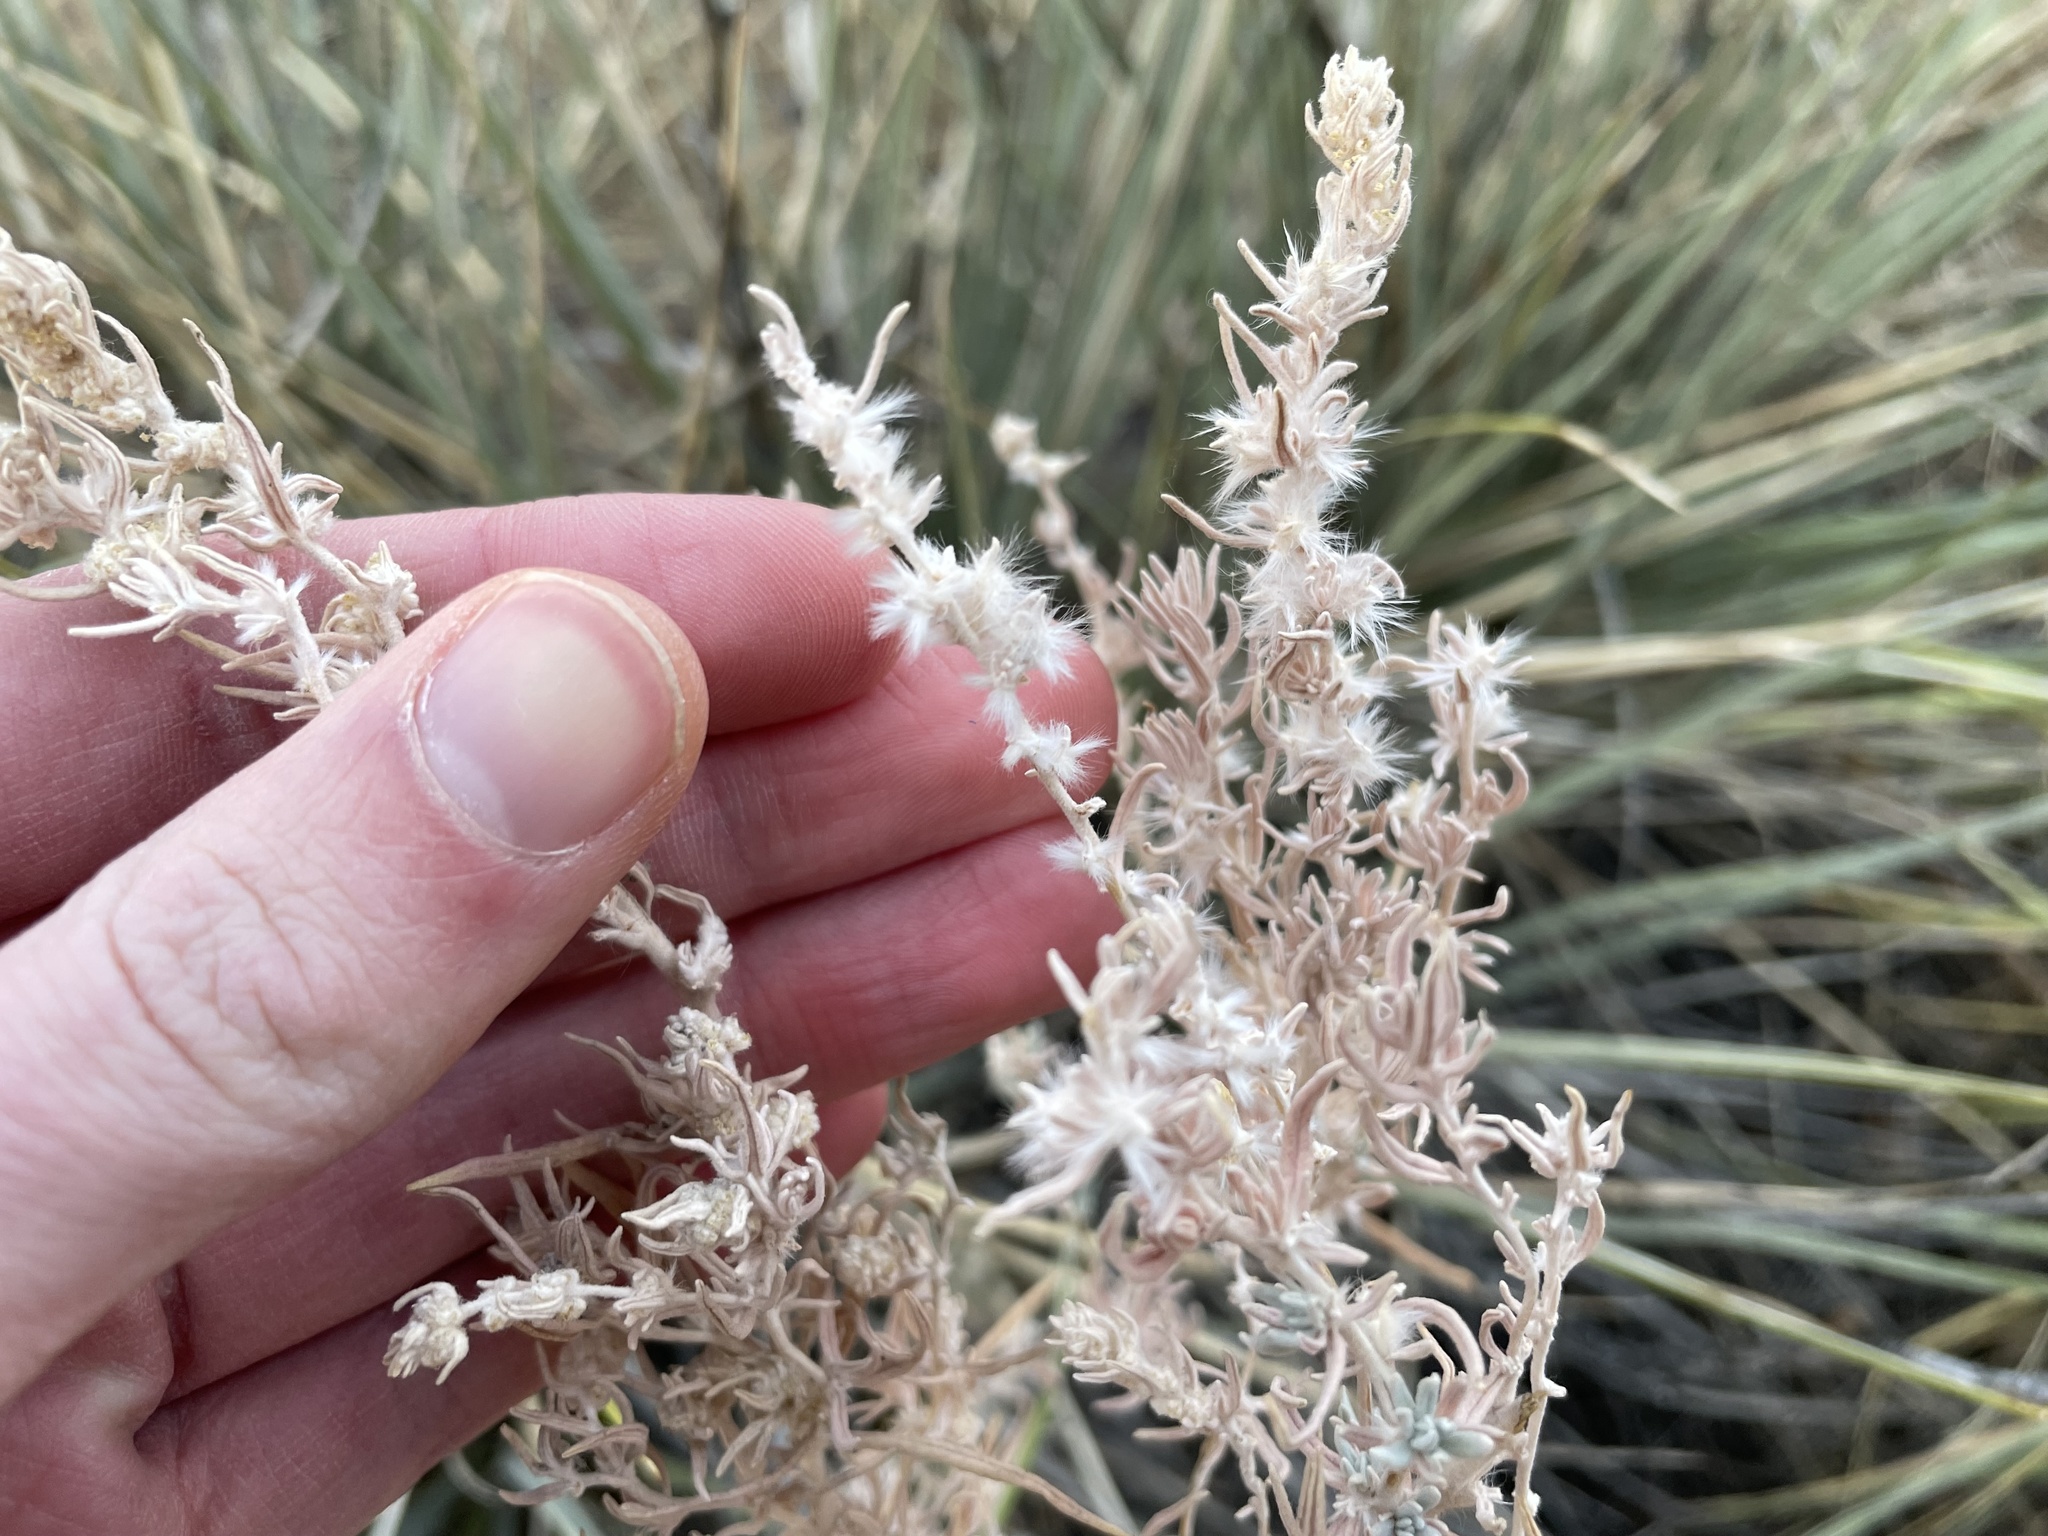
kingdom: Plantae
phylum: Tracheophyta
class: Magnoliopsida
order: Caryophyllales
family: Amaranthaceae
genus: Krascheninnikovia
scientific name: Krascheninnikovia lanata
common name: Winterfat
